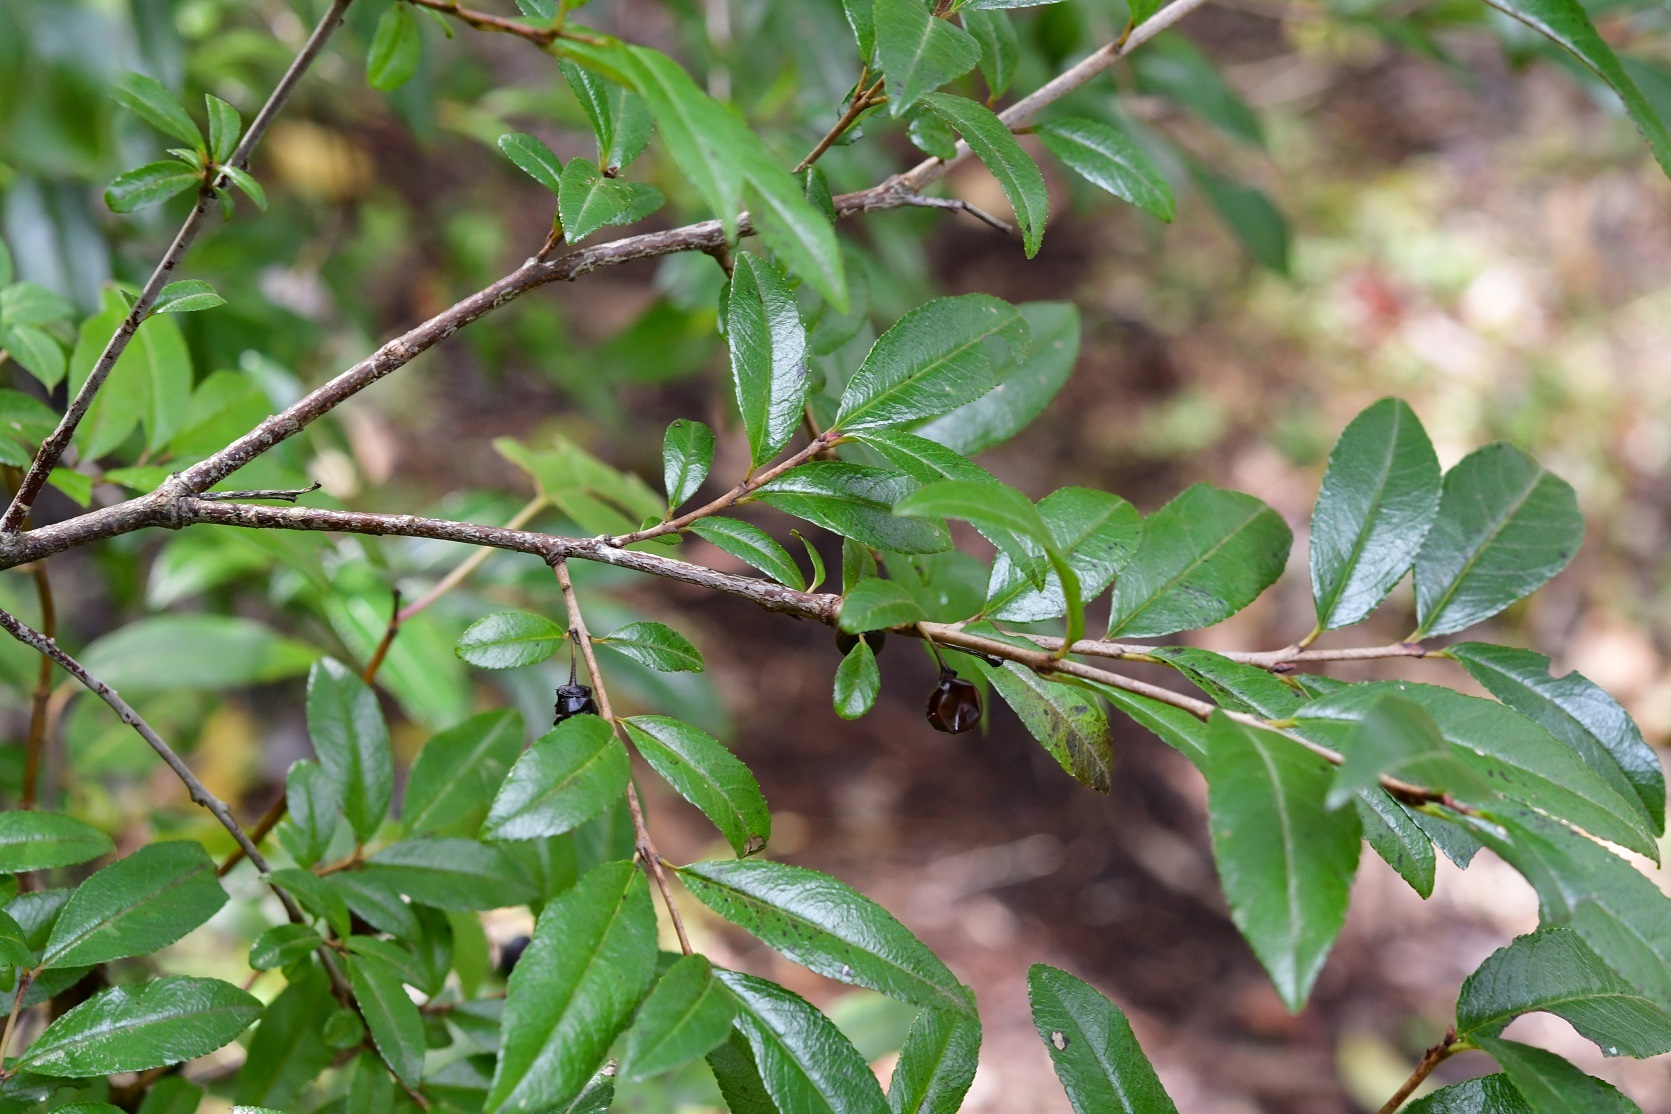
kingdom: Plantae
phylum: Tracheophyta
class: Magnoliopsida
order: Rosales
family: Rhamnaceae
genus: Frangula
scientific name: Frangula mcvaughii
